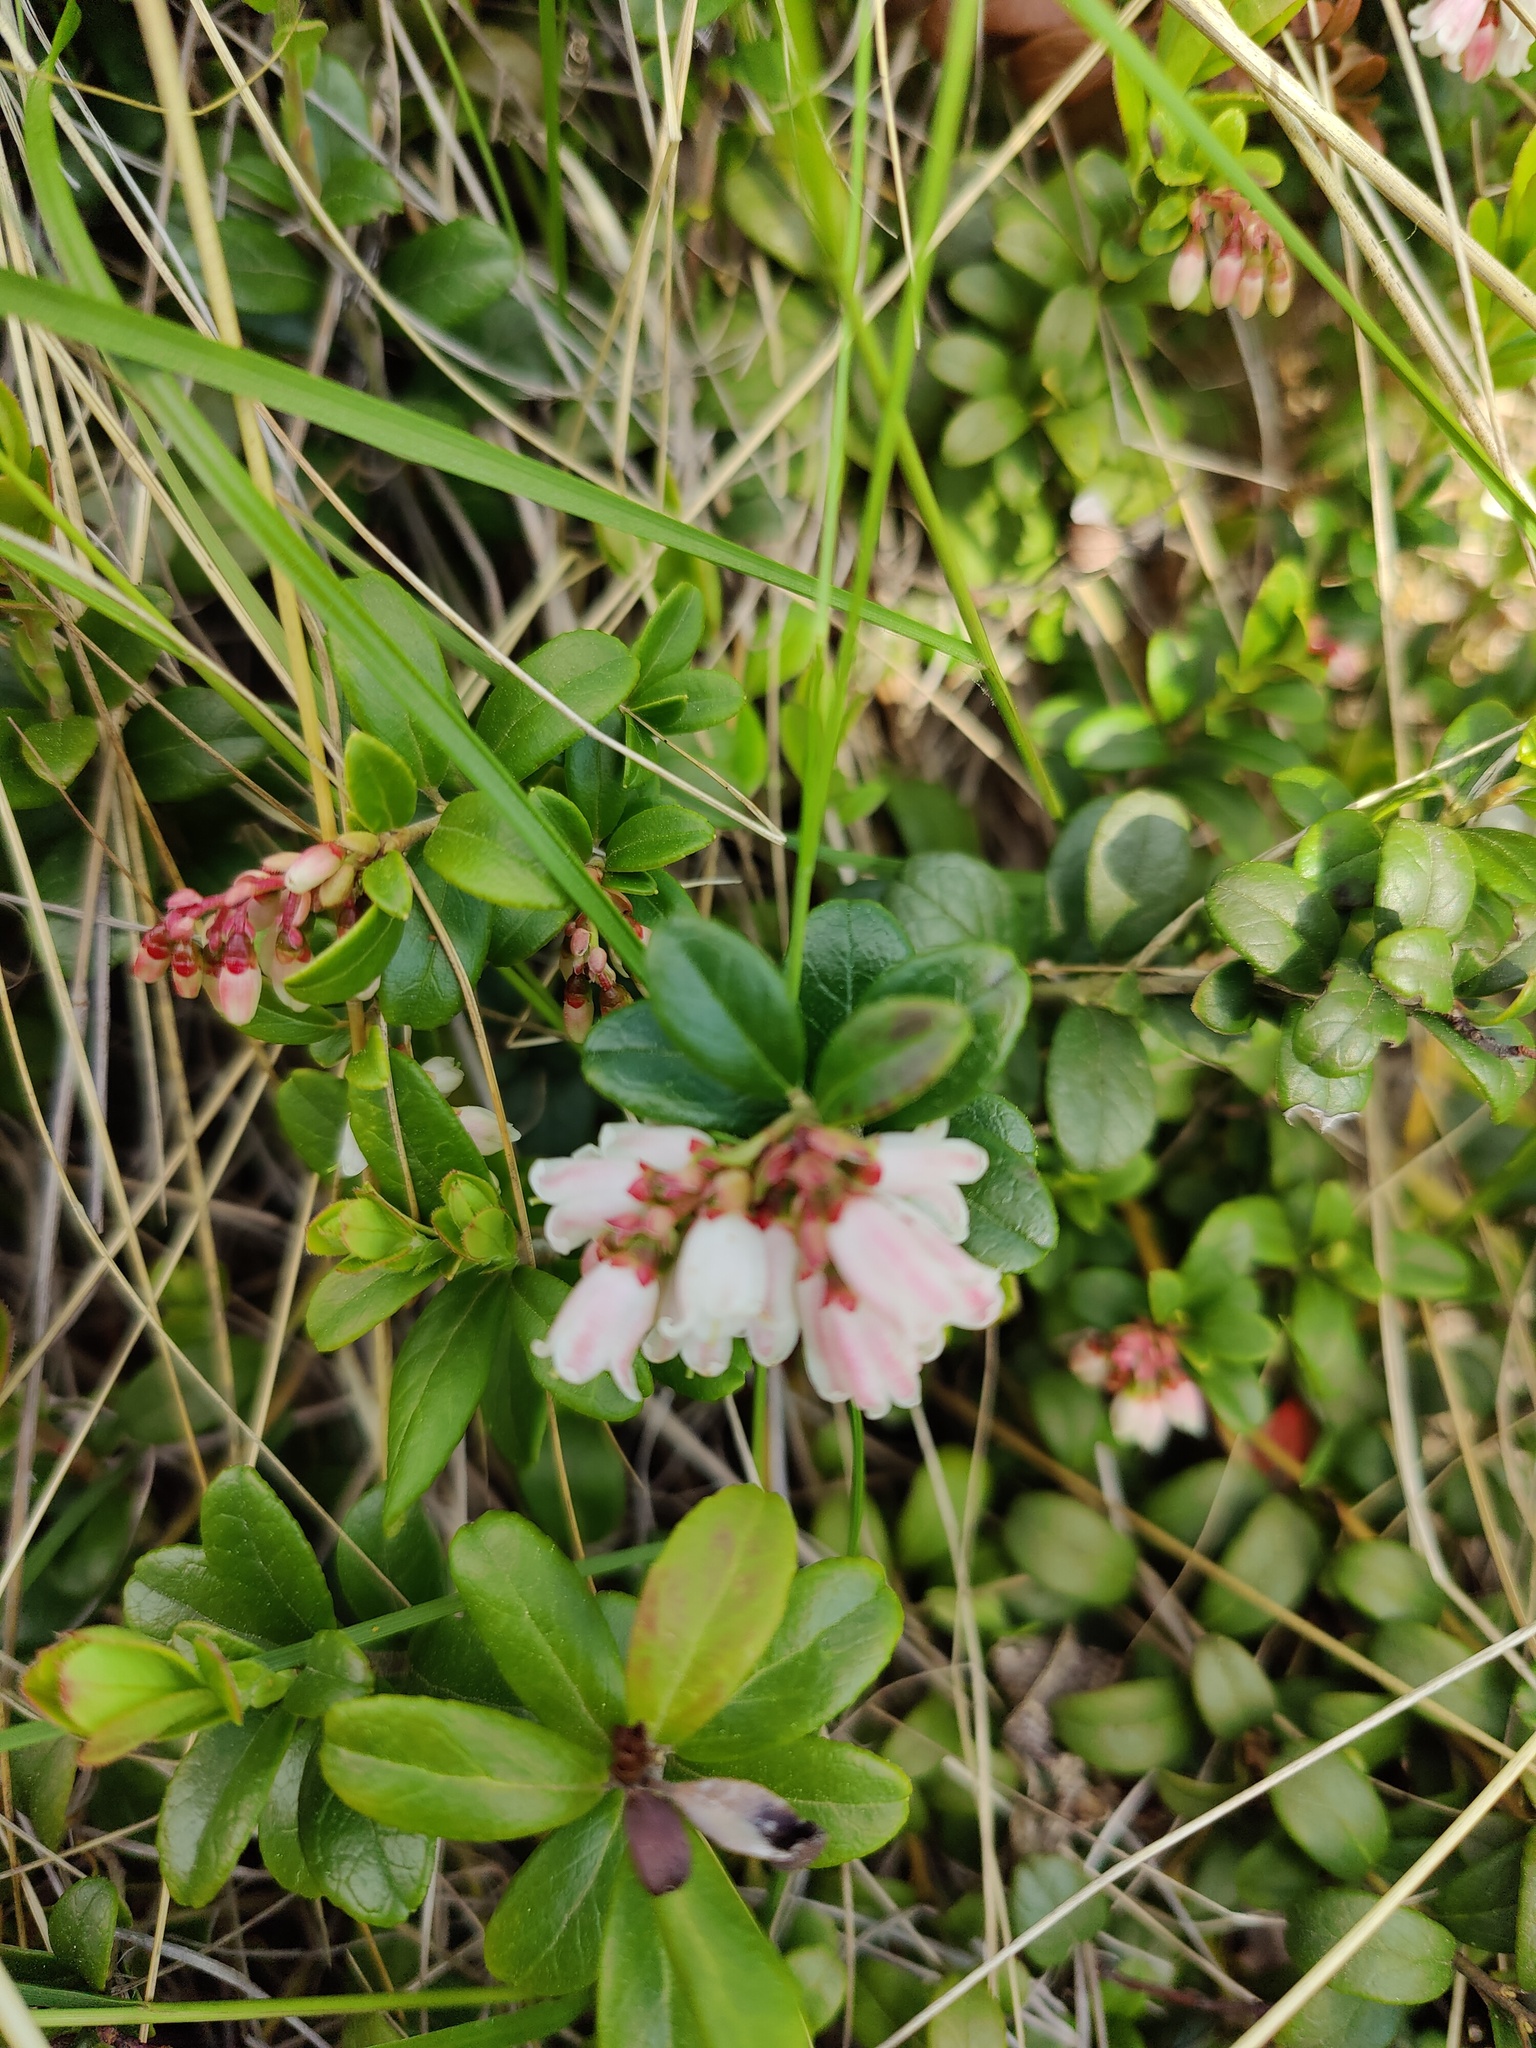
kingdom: Plantae
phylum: Tracheophyta
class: Magnoliopsida
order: Ericales
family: Ericaceae
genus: Vaccinium
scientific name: Vaccinium vitis-idaea
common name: Cowberry
